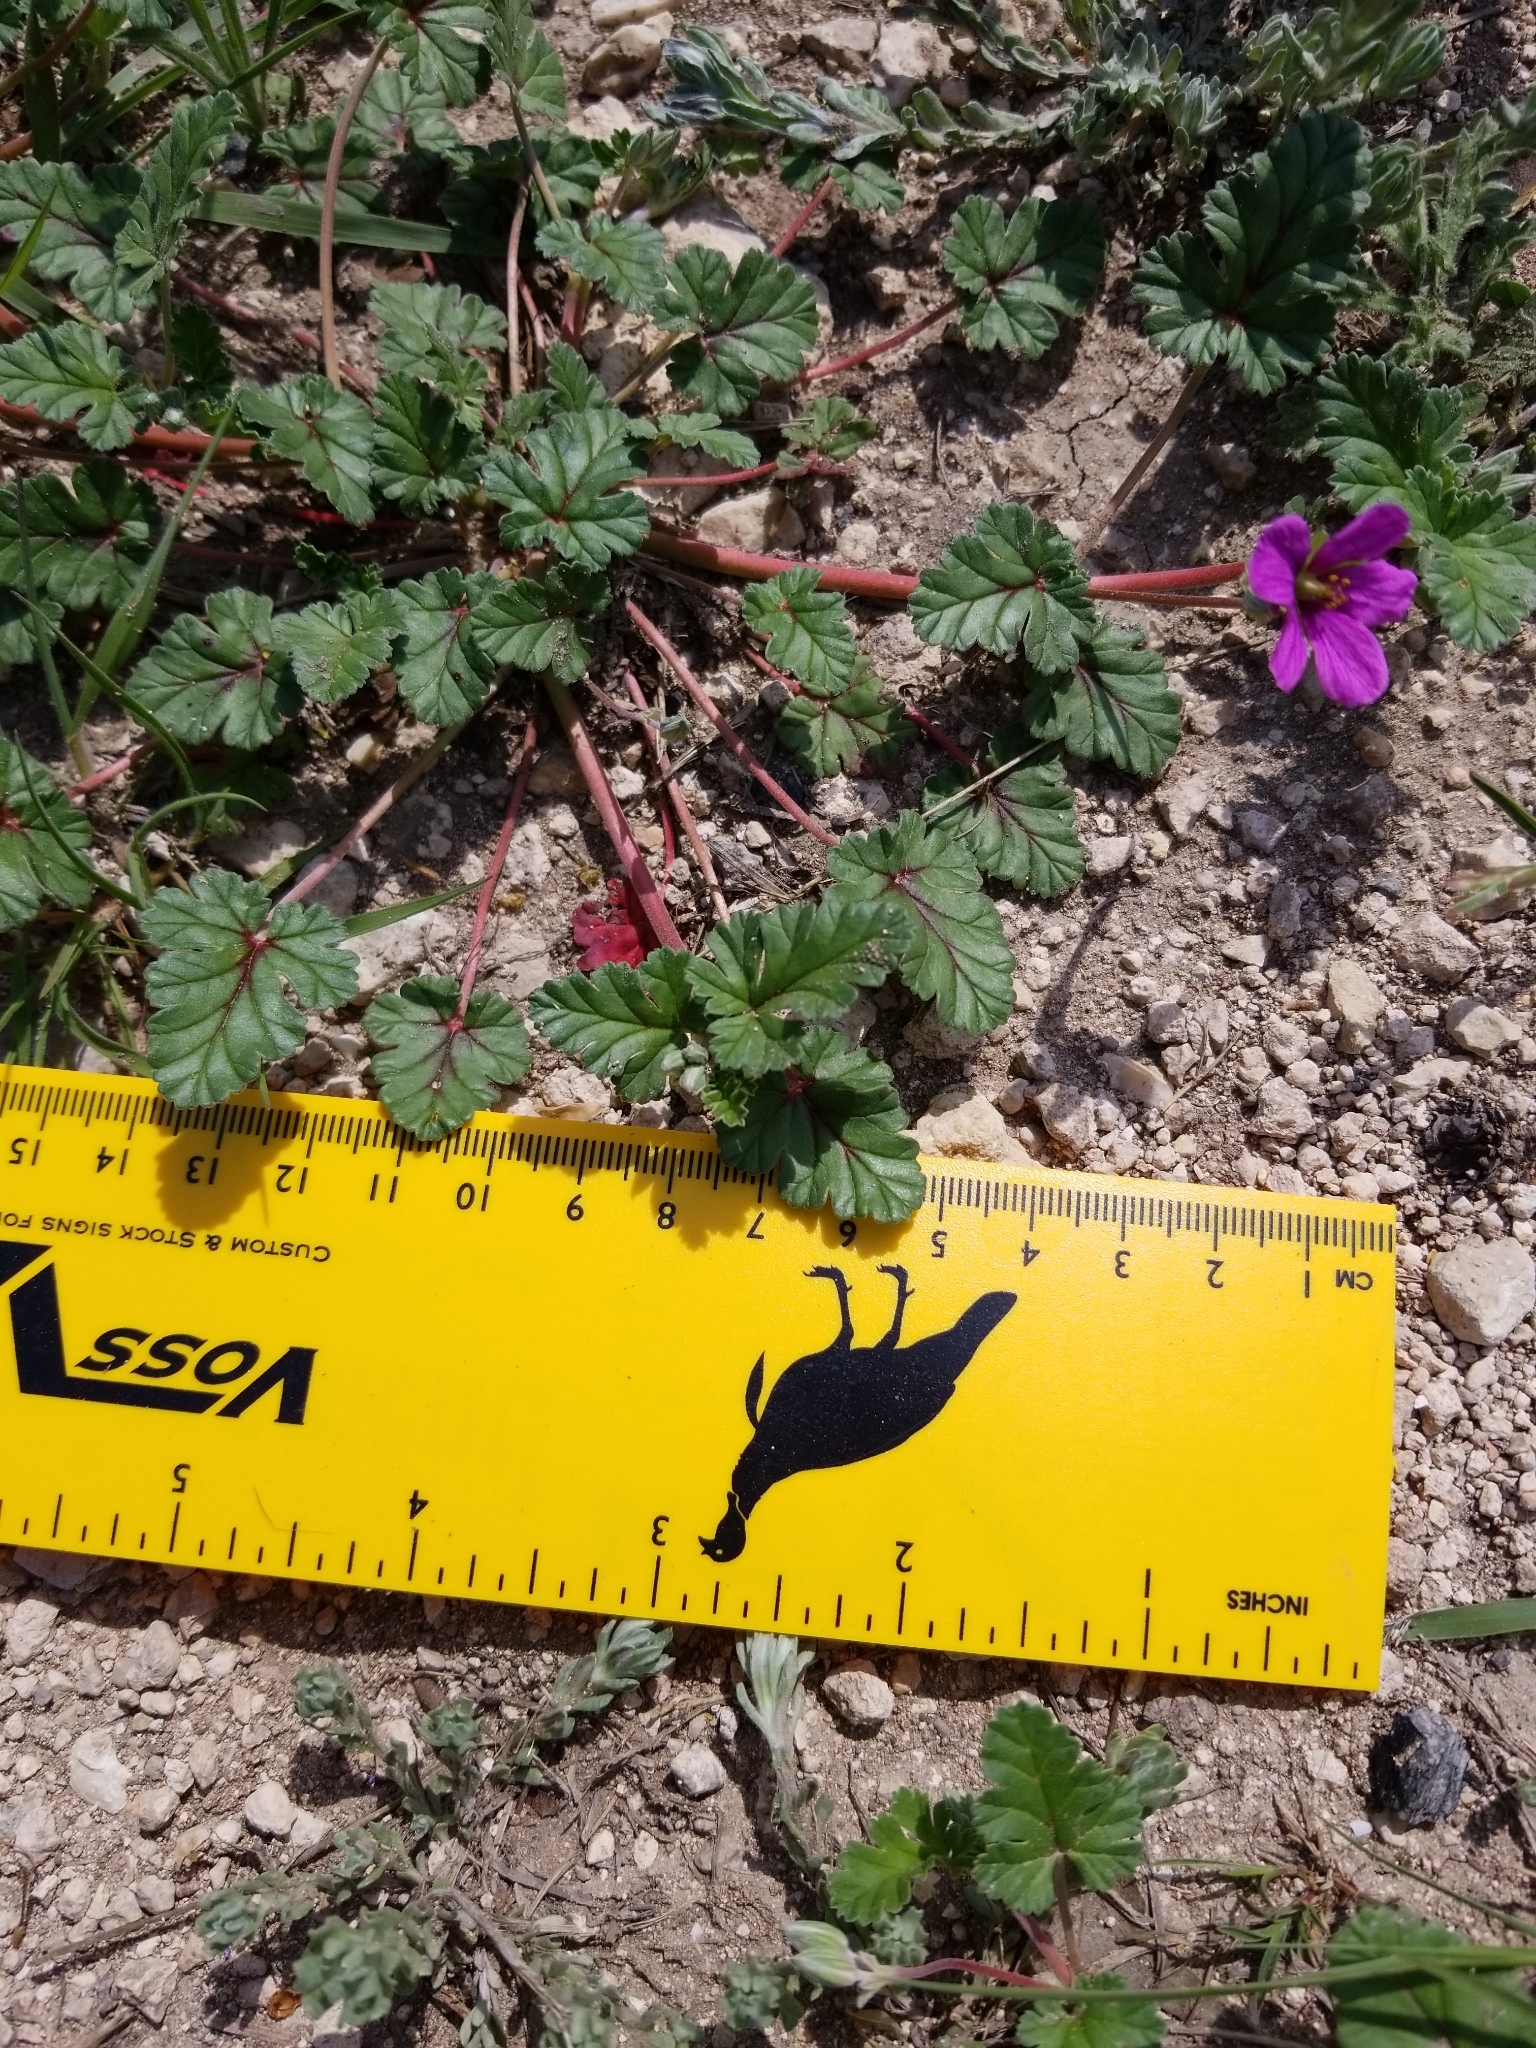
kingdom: Plantae
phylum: Tracheophyta
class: Magnoliopsida
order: Geraniales
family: Geraniaceae
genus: Erodium
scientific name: Erodium texanum
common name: Texas stork's-bill
